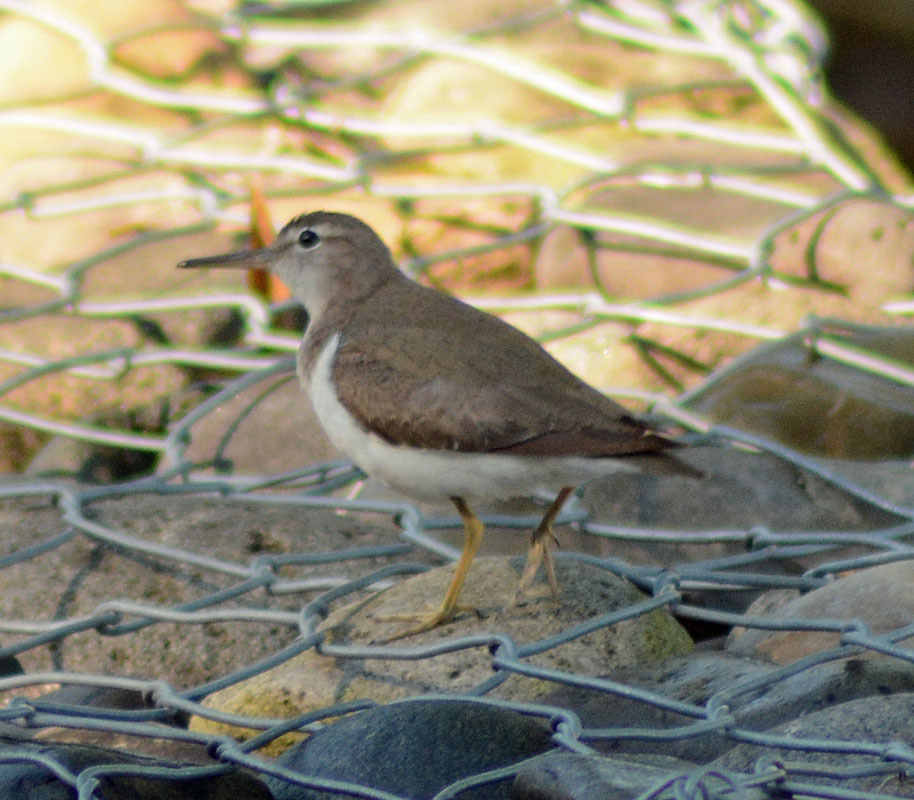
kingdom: Animalia
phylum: Chordata
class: Aves
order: Charadriiformes
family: Scolopacidae
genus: Actitis
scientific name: Actitis macularius
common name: Spotted sandpiper
